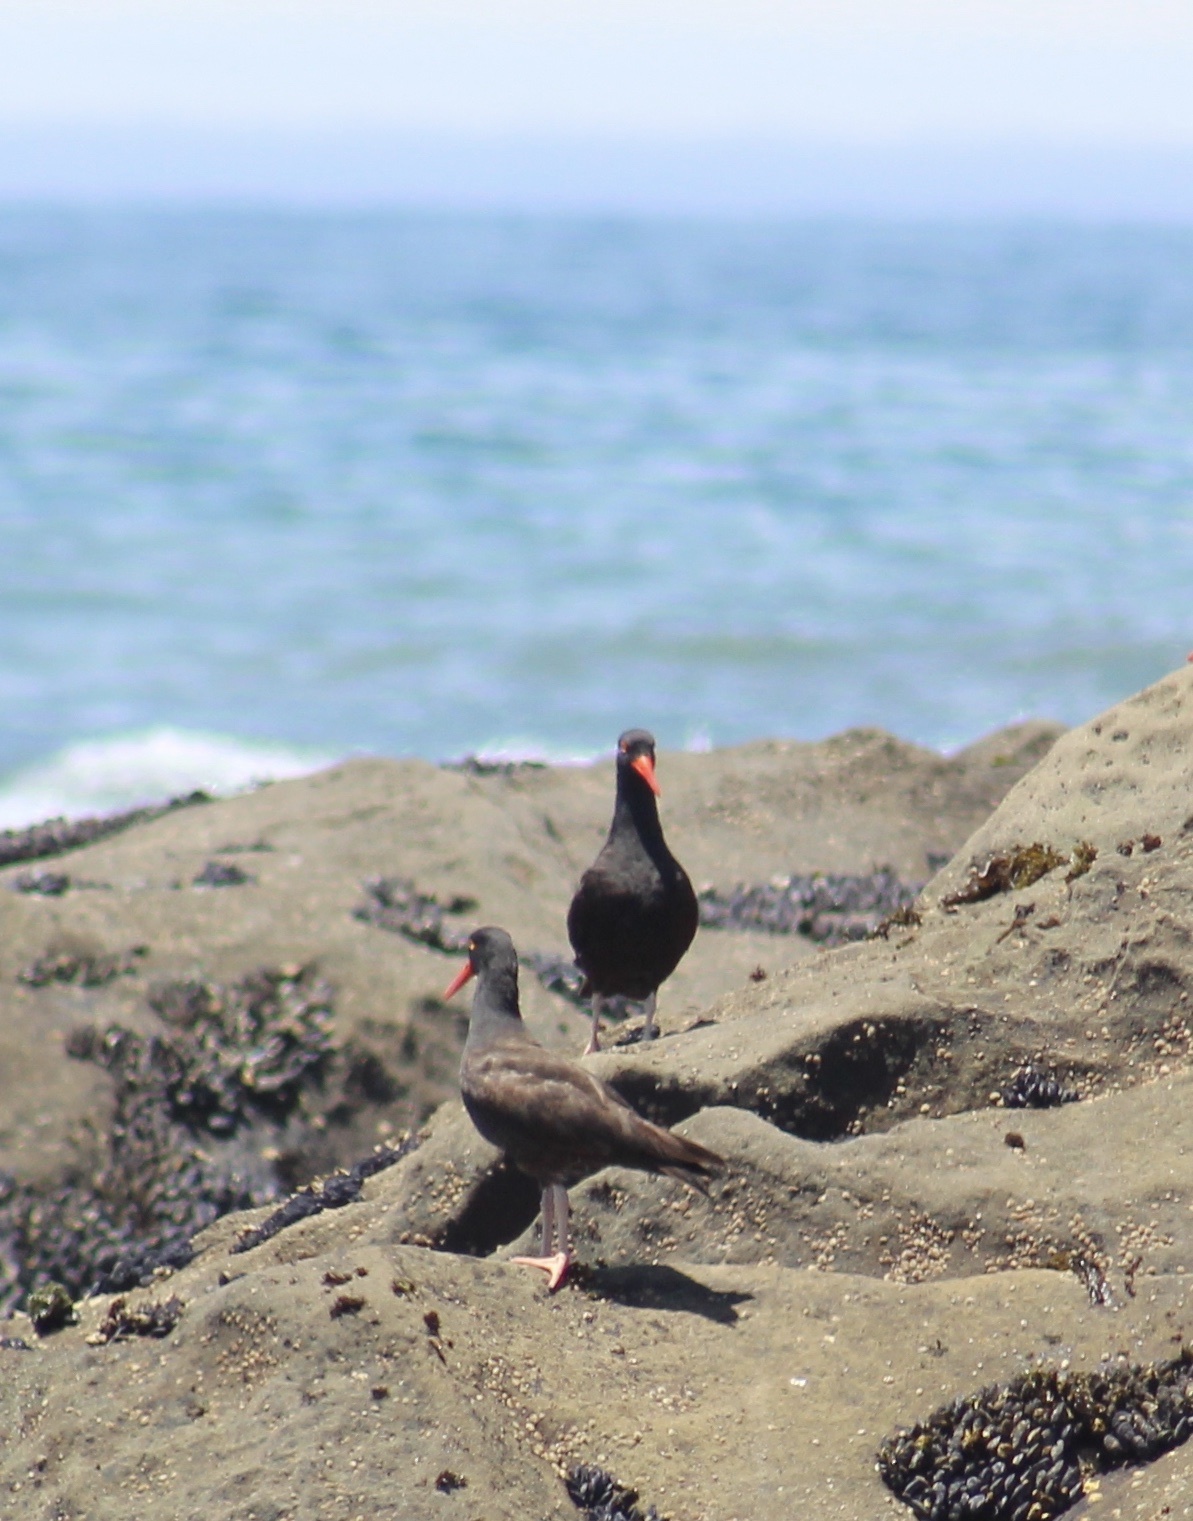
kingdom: Animalia
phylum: Chordata
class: Aves
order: Charadriiformes
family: Haematopodidae
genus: Haematopus
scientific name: Haematopus bachmani
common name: Black oystercatcher
